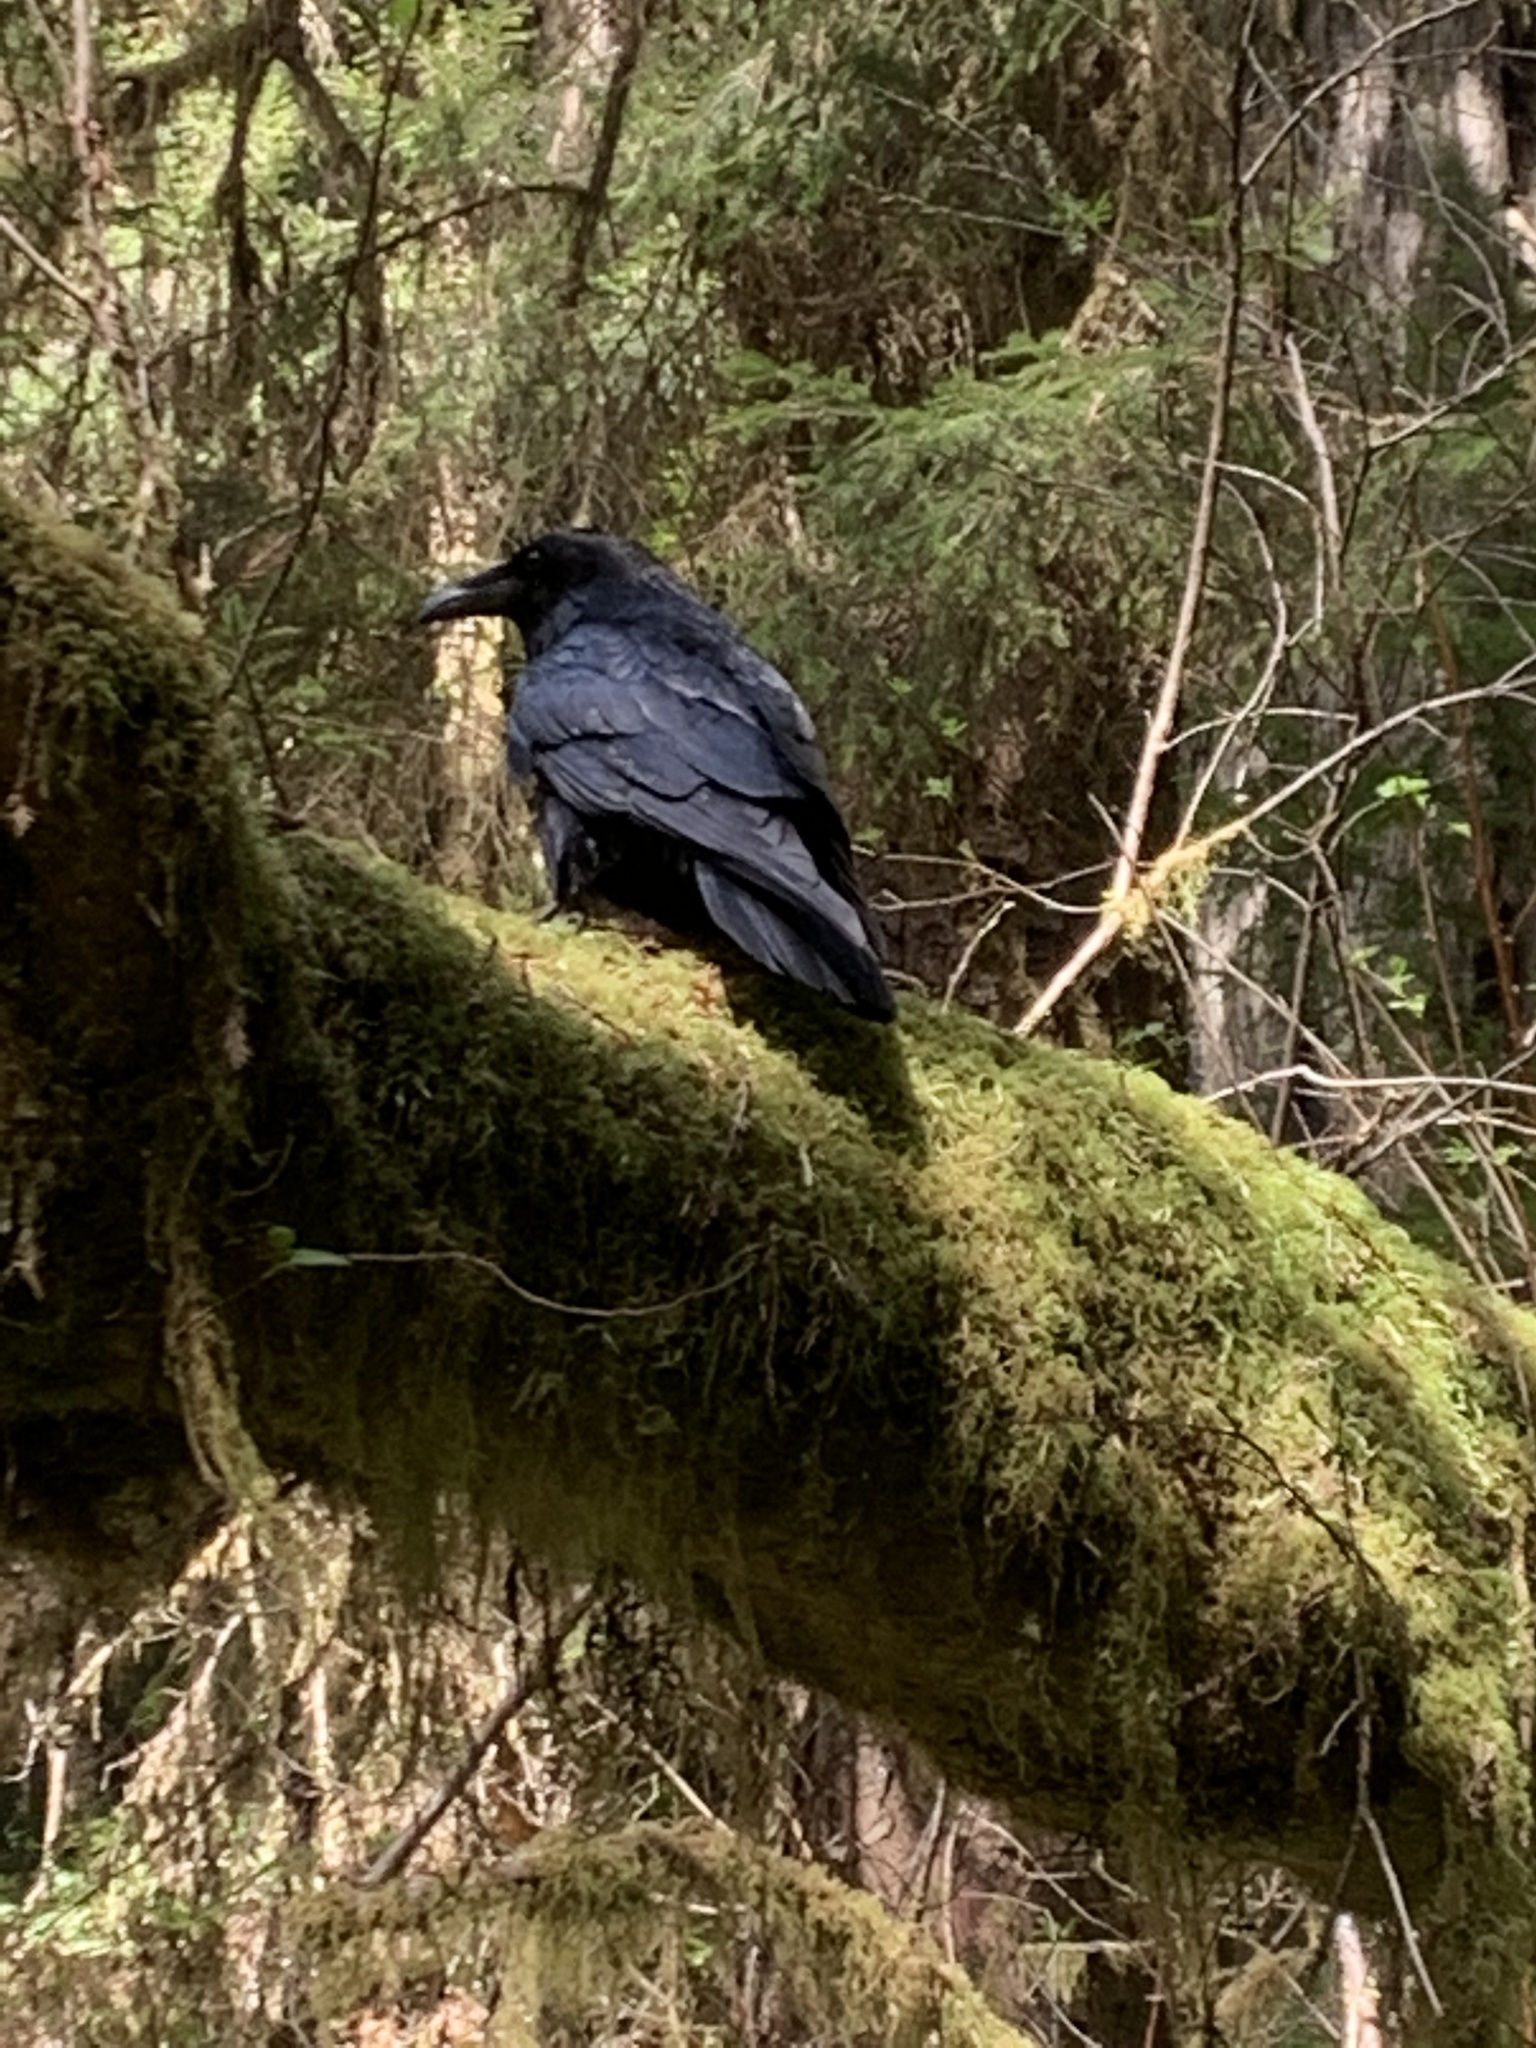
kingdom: Animalia
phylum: Chordata
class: Aves
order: Passeriformes
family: Corvidae
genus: Corvus
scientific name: Corvus corax
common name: Common raven
